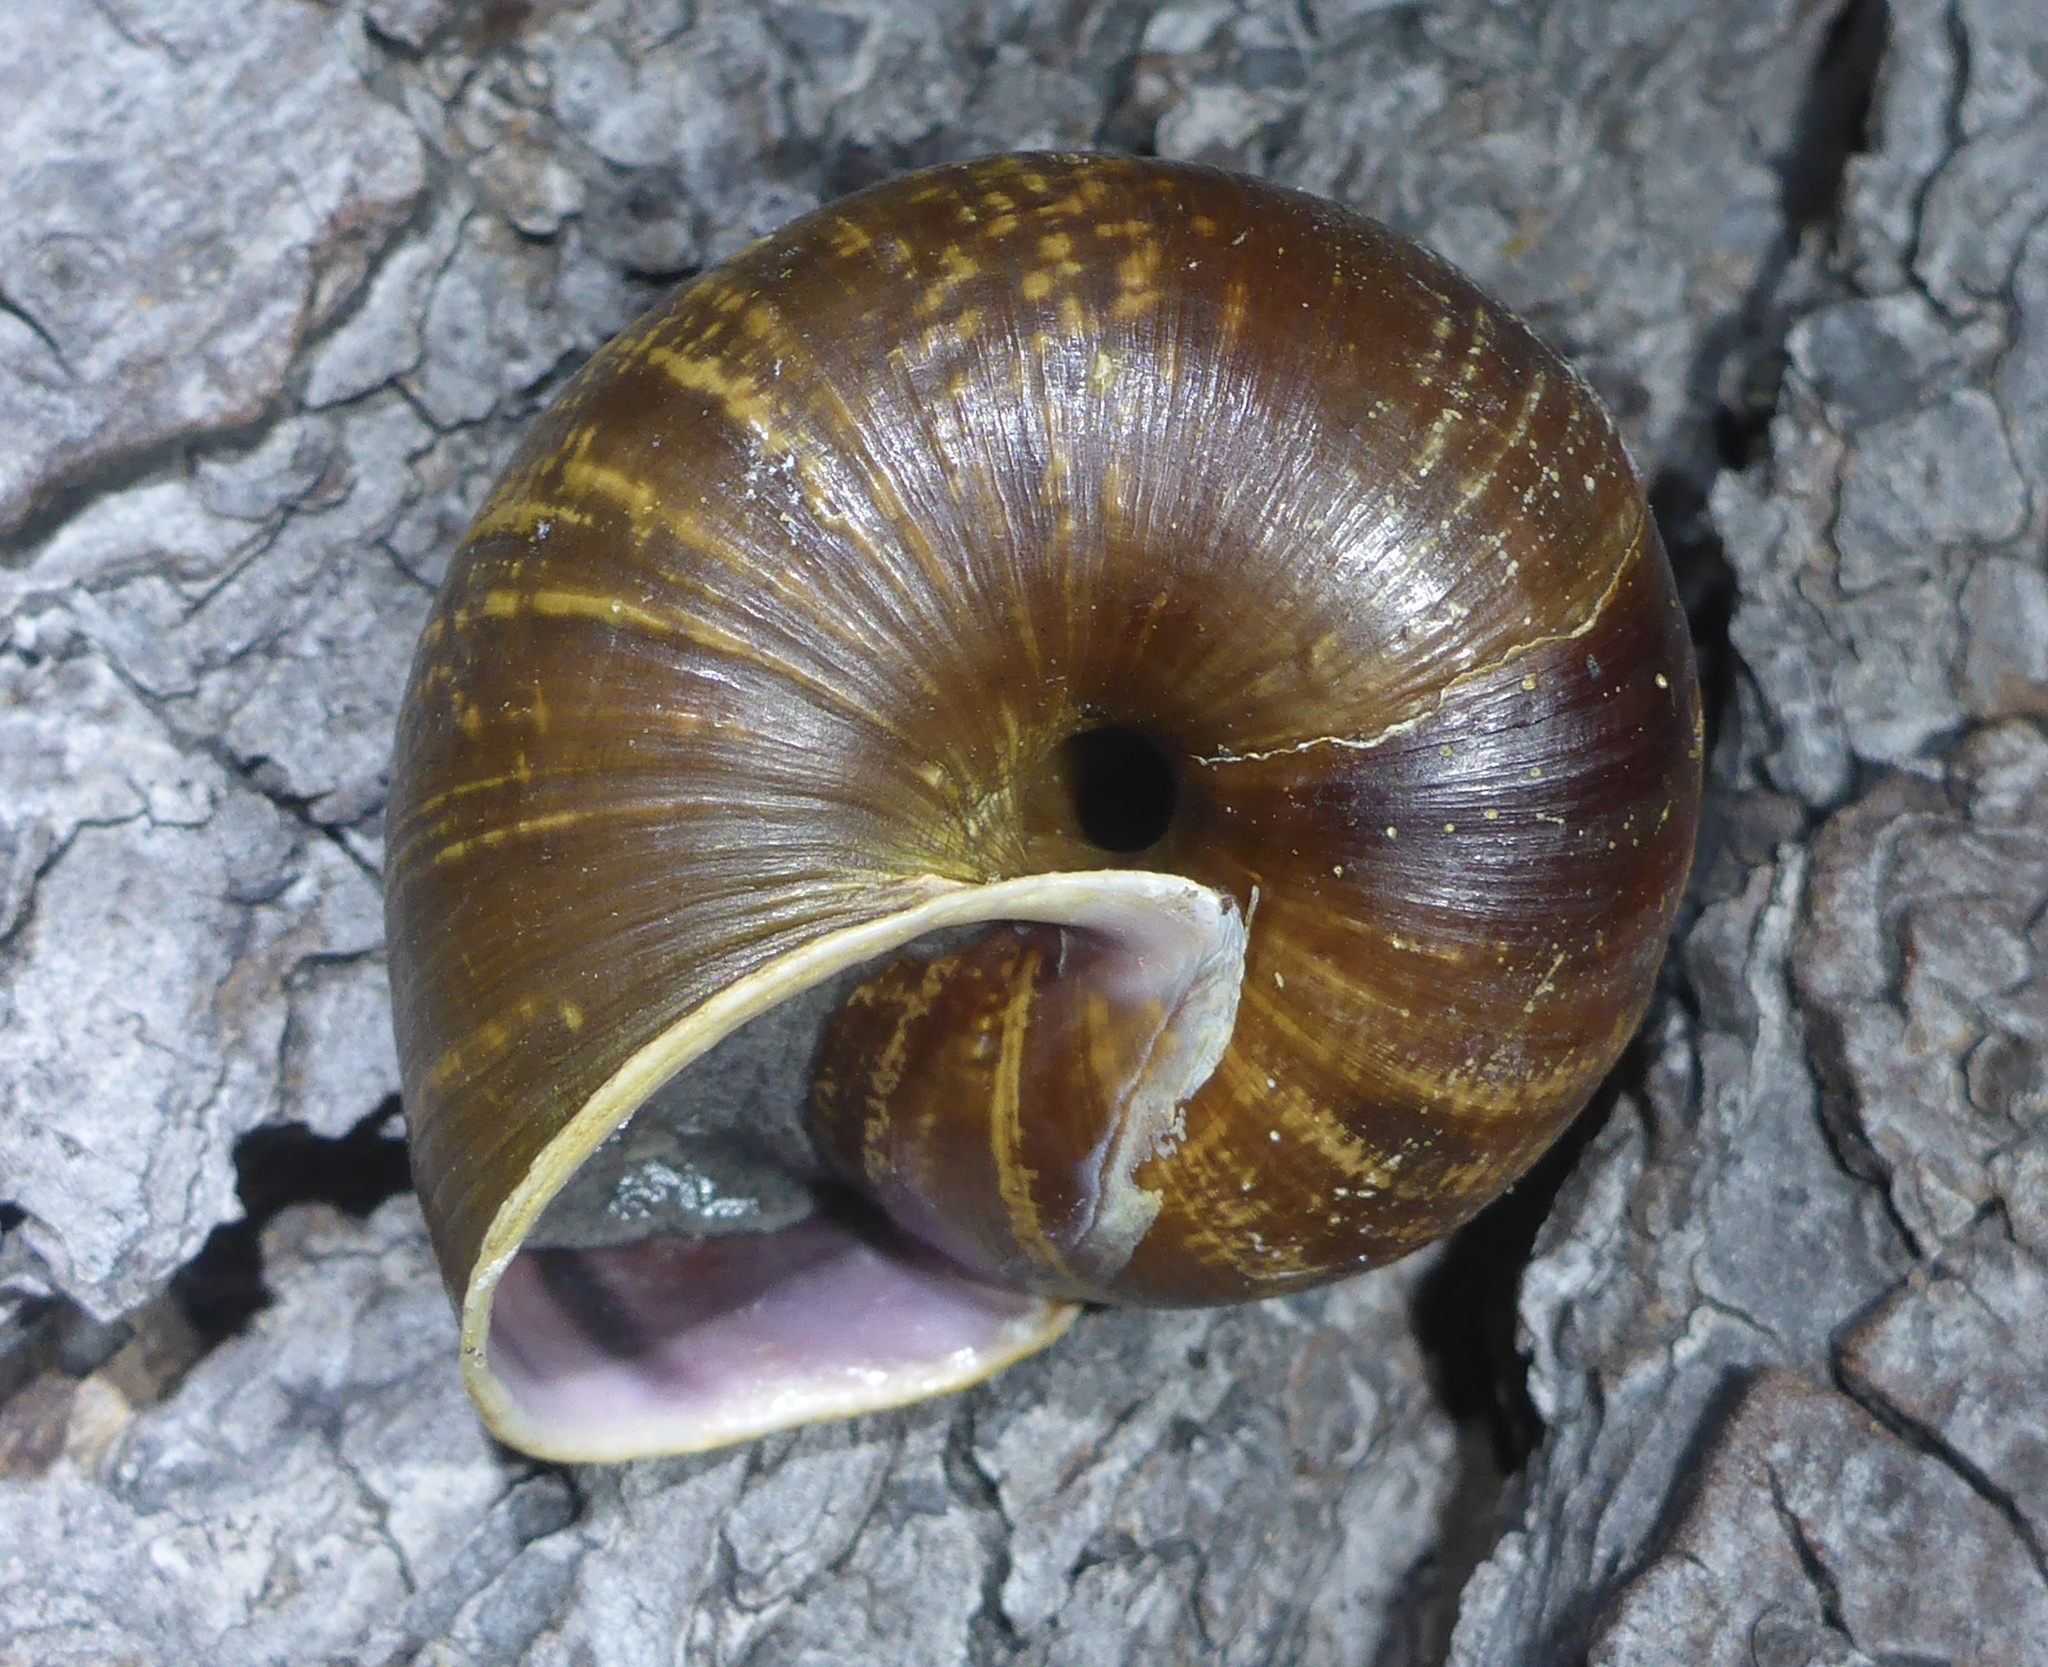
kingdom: Animalia
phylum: Mollusca
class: Gastropoda
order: Stylommatophora
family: Xanthonychidae
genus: Helminthoglypta
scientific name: Helminthoglypta arrosa
